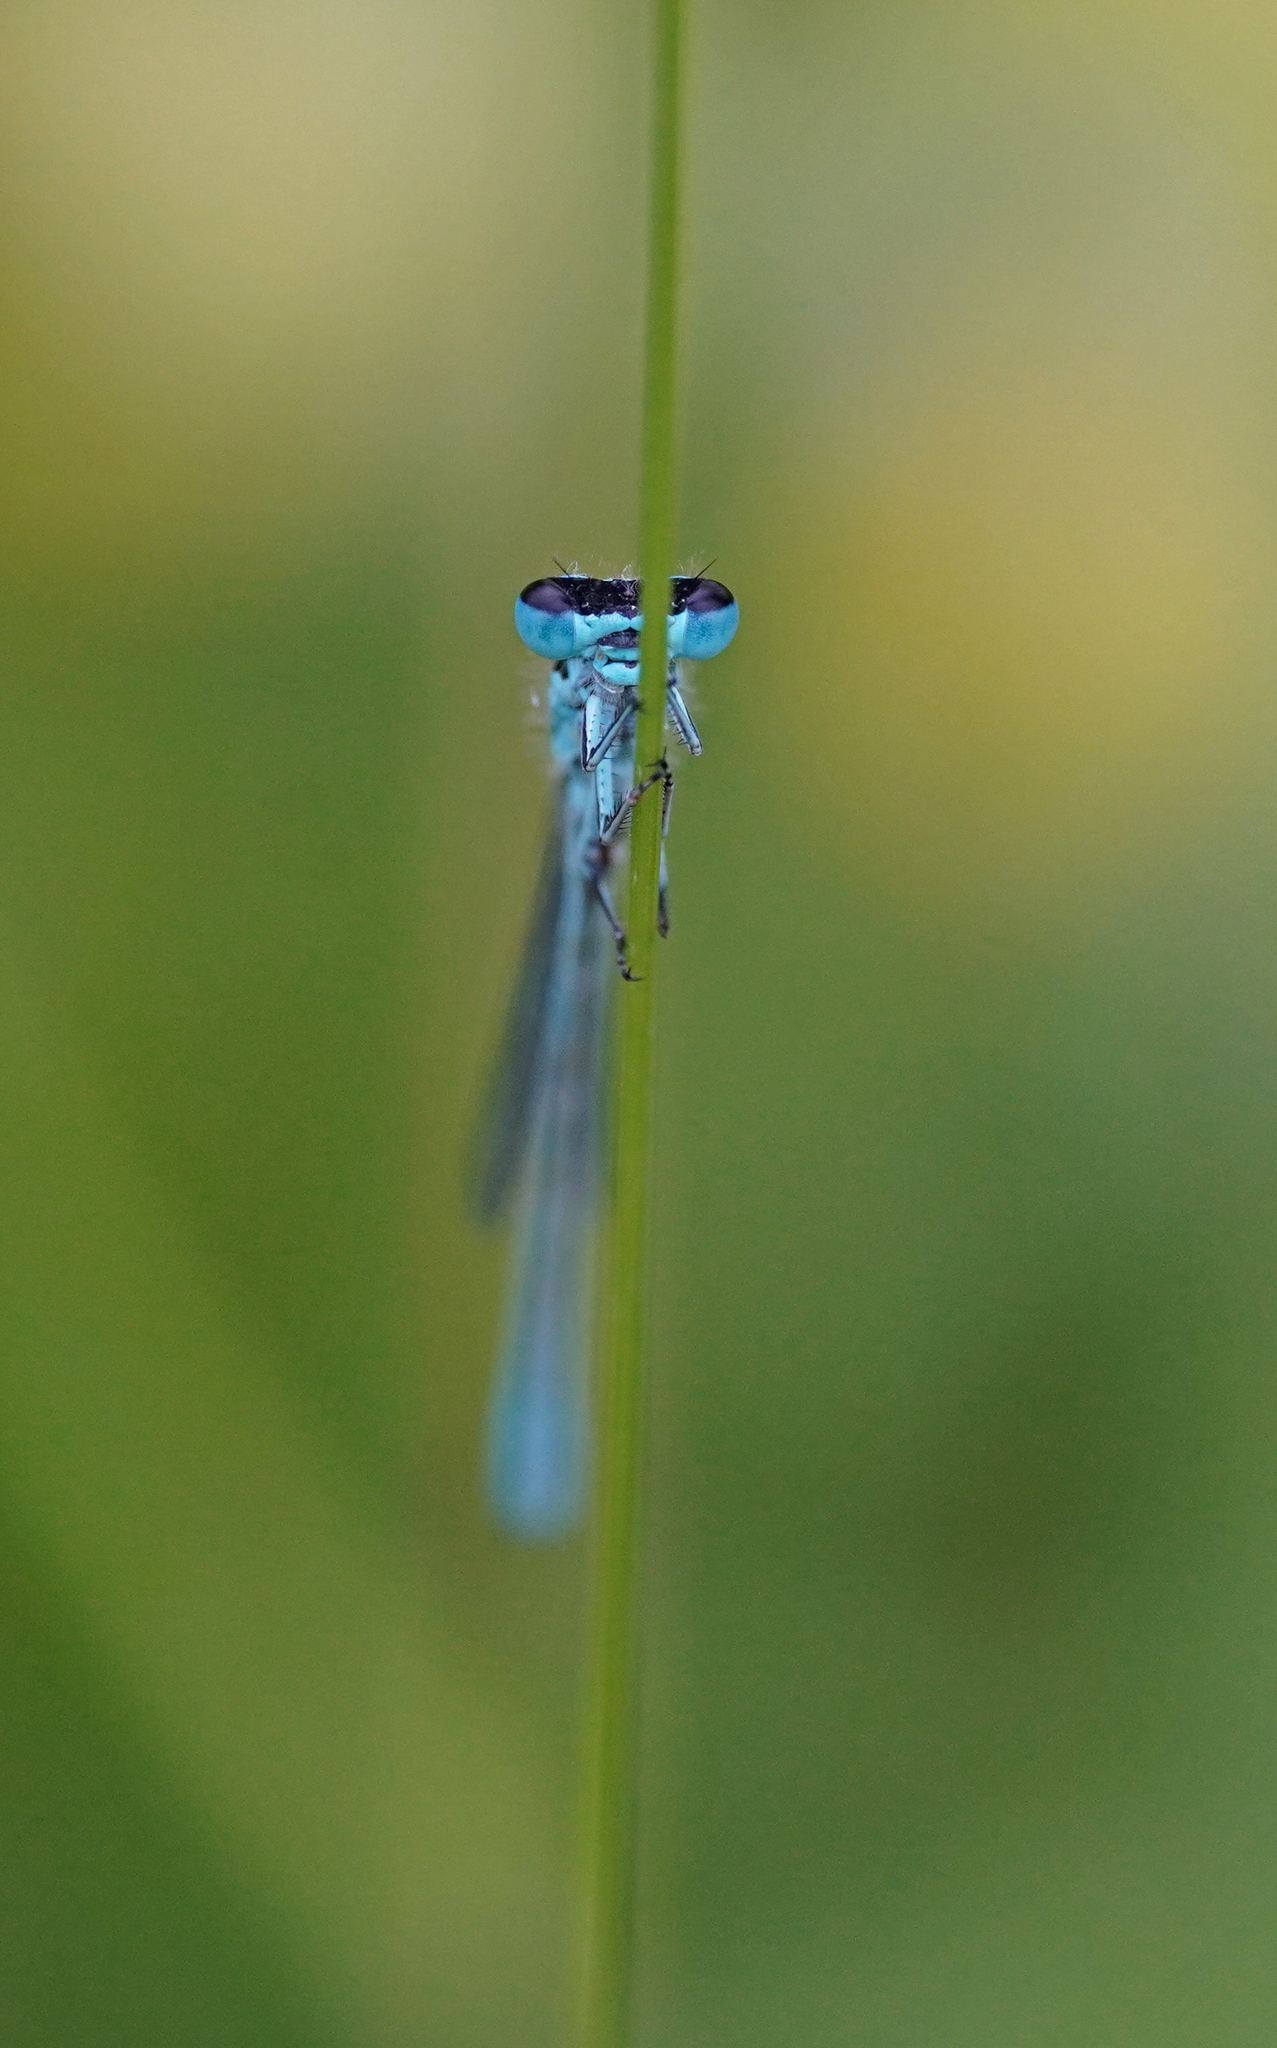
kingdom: Animalia
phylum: Arthropoda
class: Insecta
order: Odonata
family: Coenagrionidae
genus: Coenagrion
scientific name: Coenagrion mercuriale
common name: Southern damselfly
